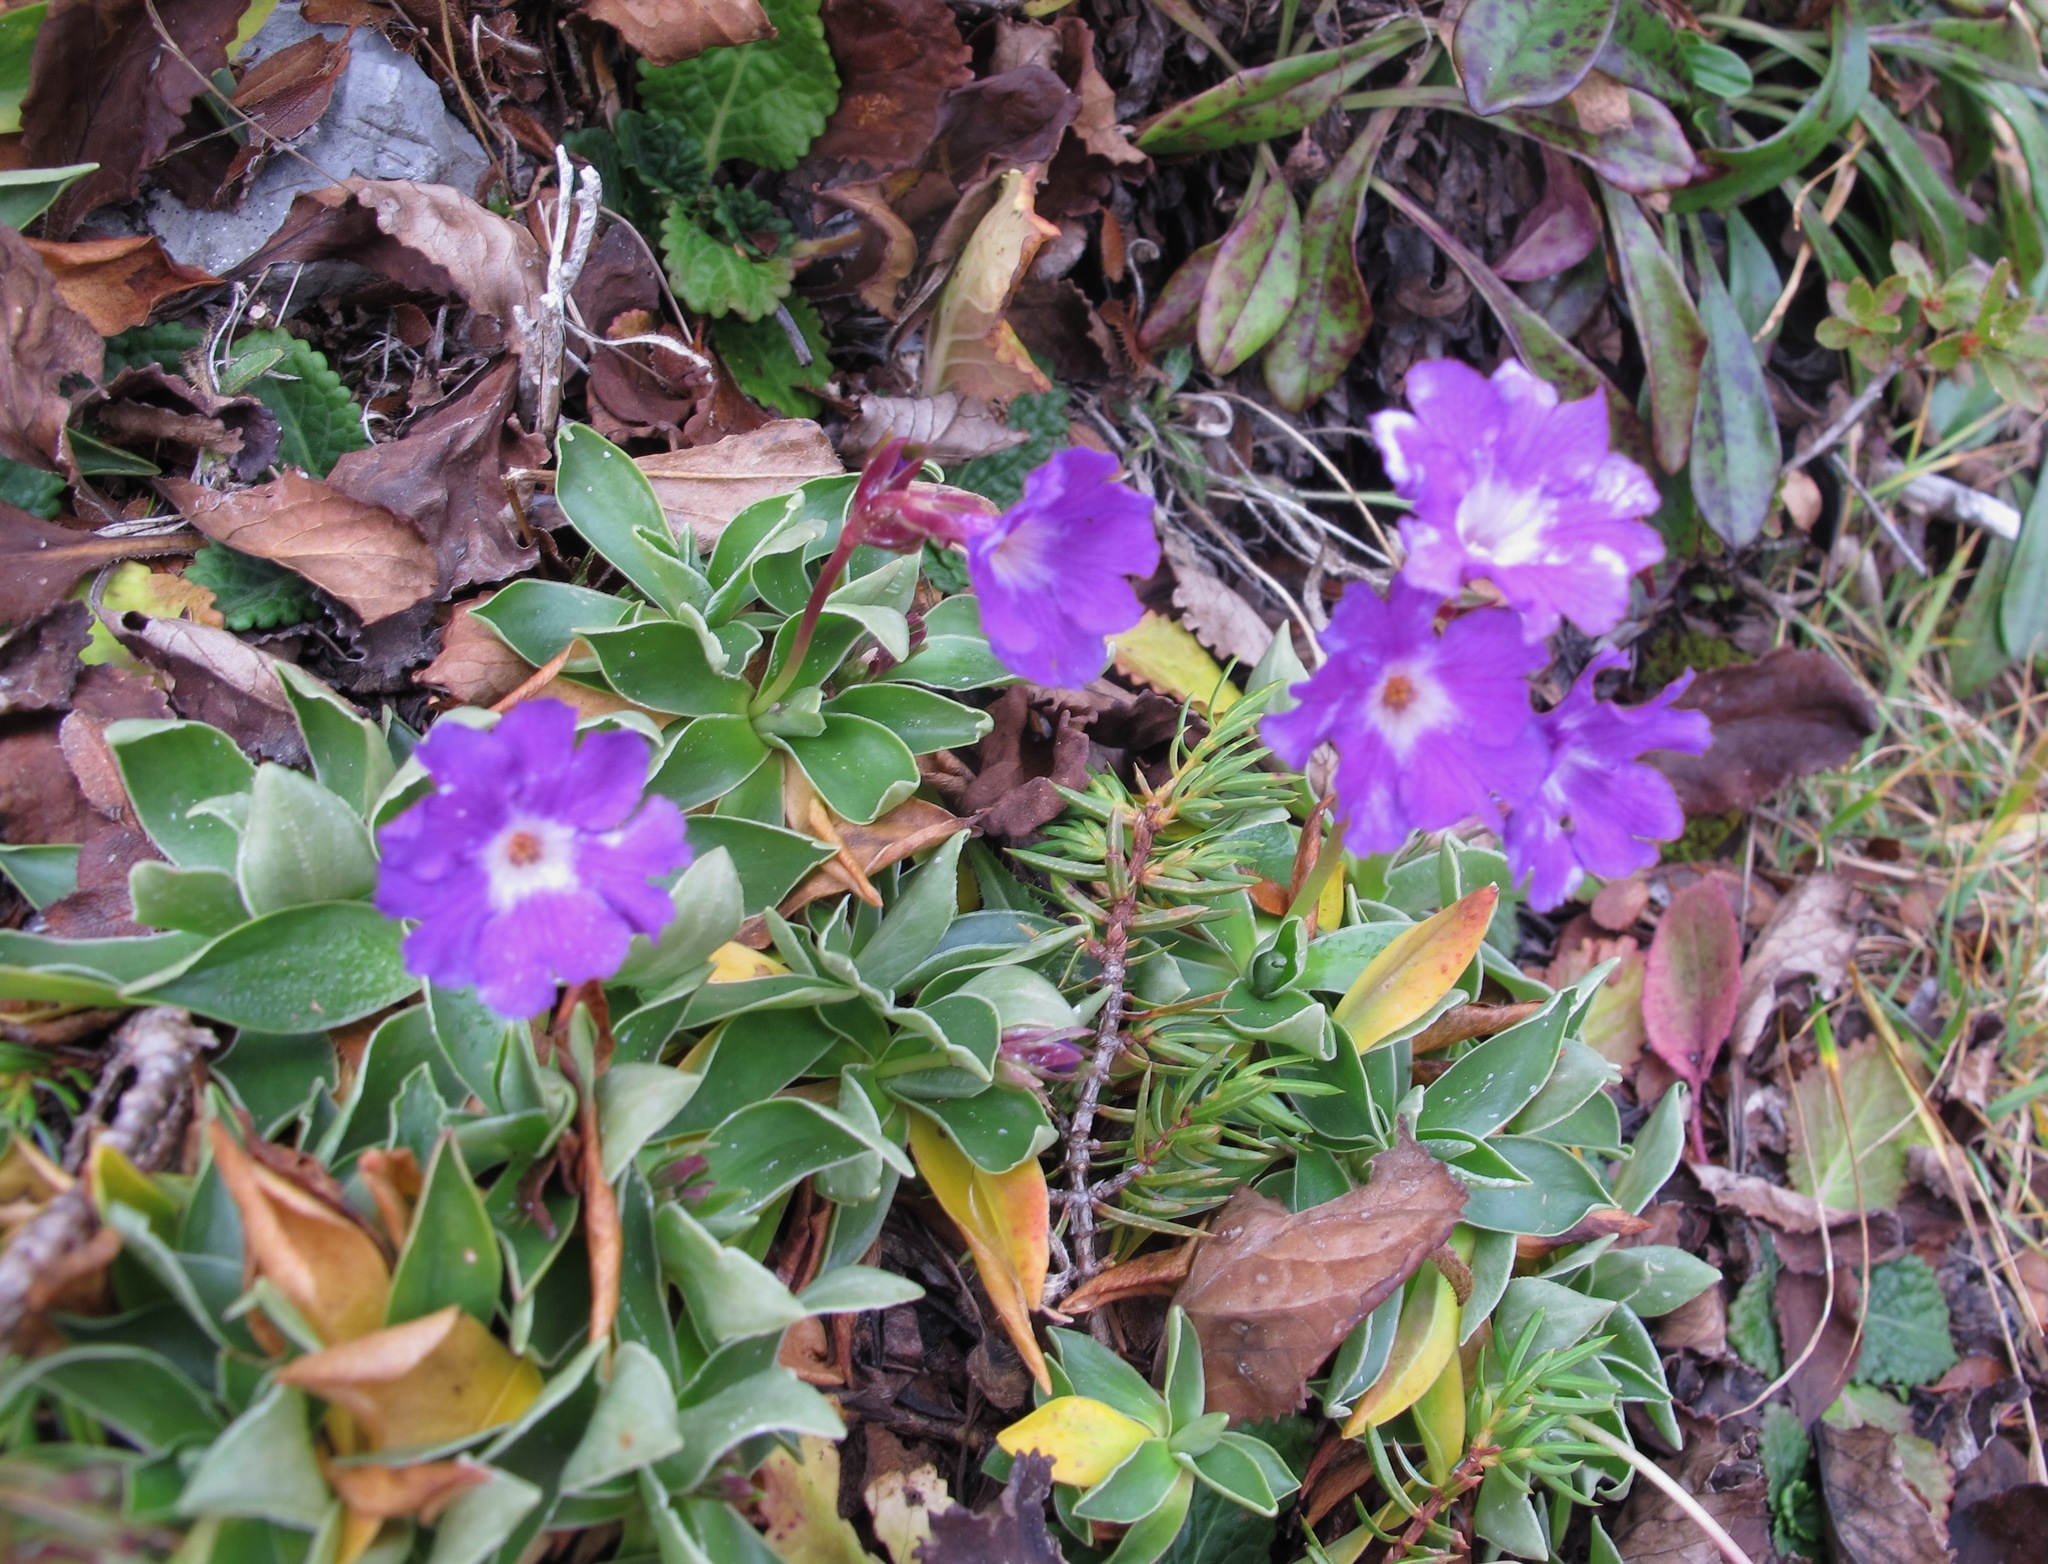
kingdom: Plantae
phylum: Tracheophyta
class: Magnoliopsida
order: Ericales
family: Primulaceae
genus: Primula
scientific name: Primula glaucescens
